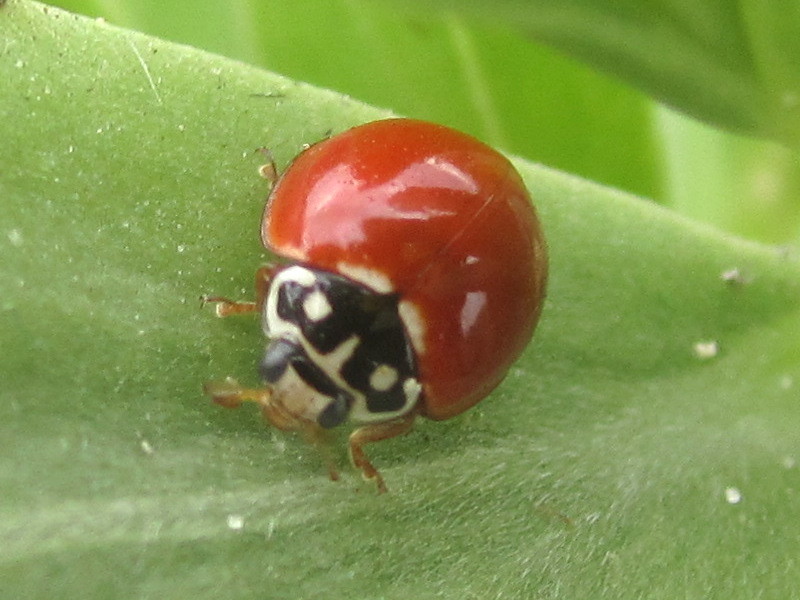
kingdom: Animalia
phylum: Arthropoda
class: Insecta
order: Coleoptera
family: Coccinellidae
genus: Cycloneda
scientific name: Cycloneda sanguinea
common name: Ladybird beetle
